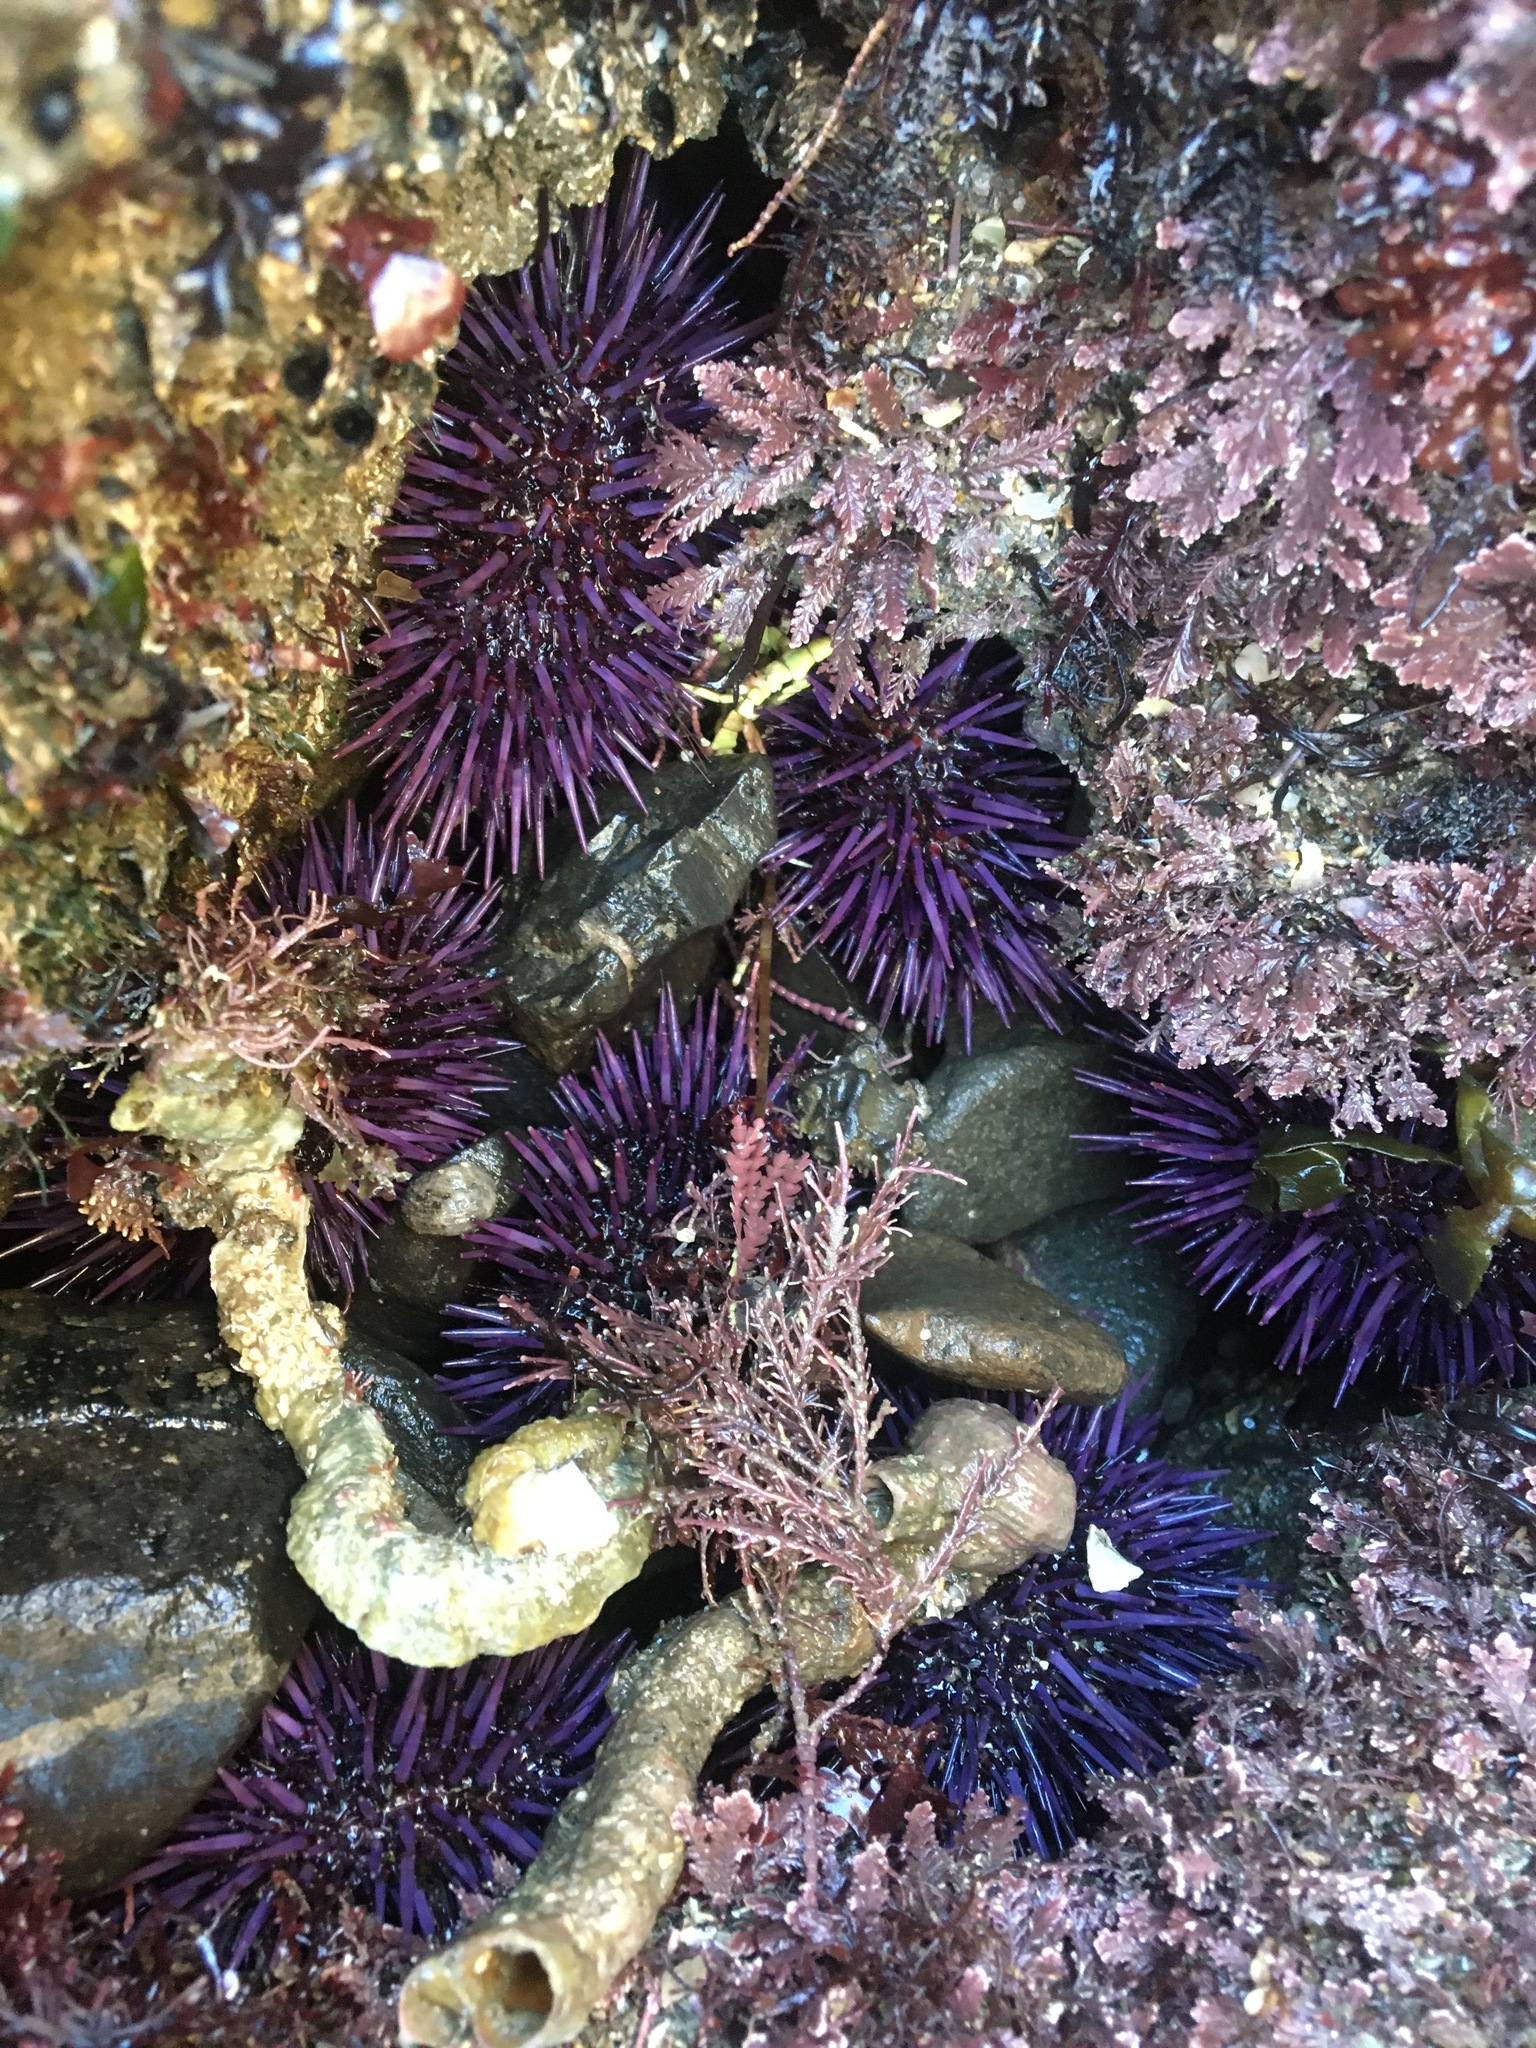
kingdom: Animalia
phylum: Echinodermata
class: Echinoidea
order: Camarodonta
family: Strongylocentrotidae
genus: Strongylocentrotus
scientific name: Strongylocentrotus purpuratus
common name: Purple sea urchin
